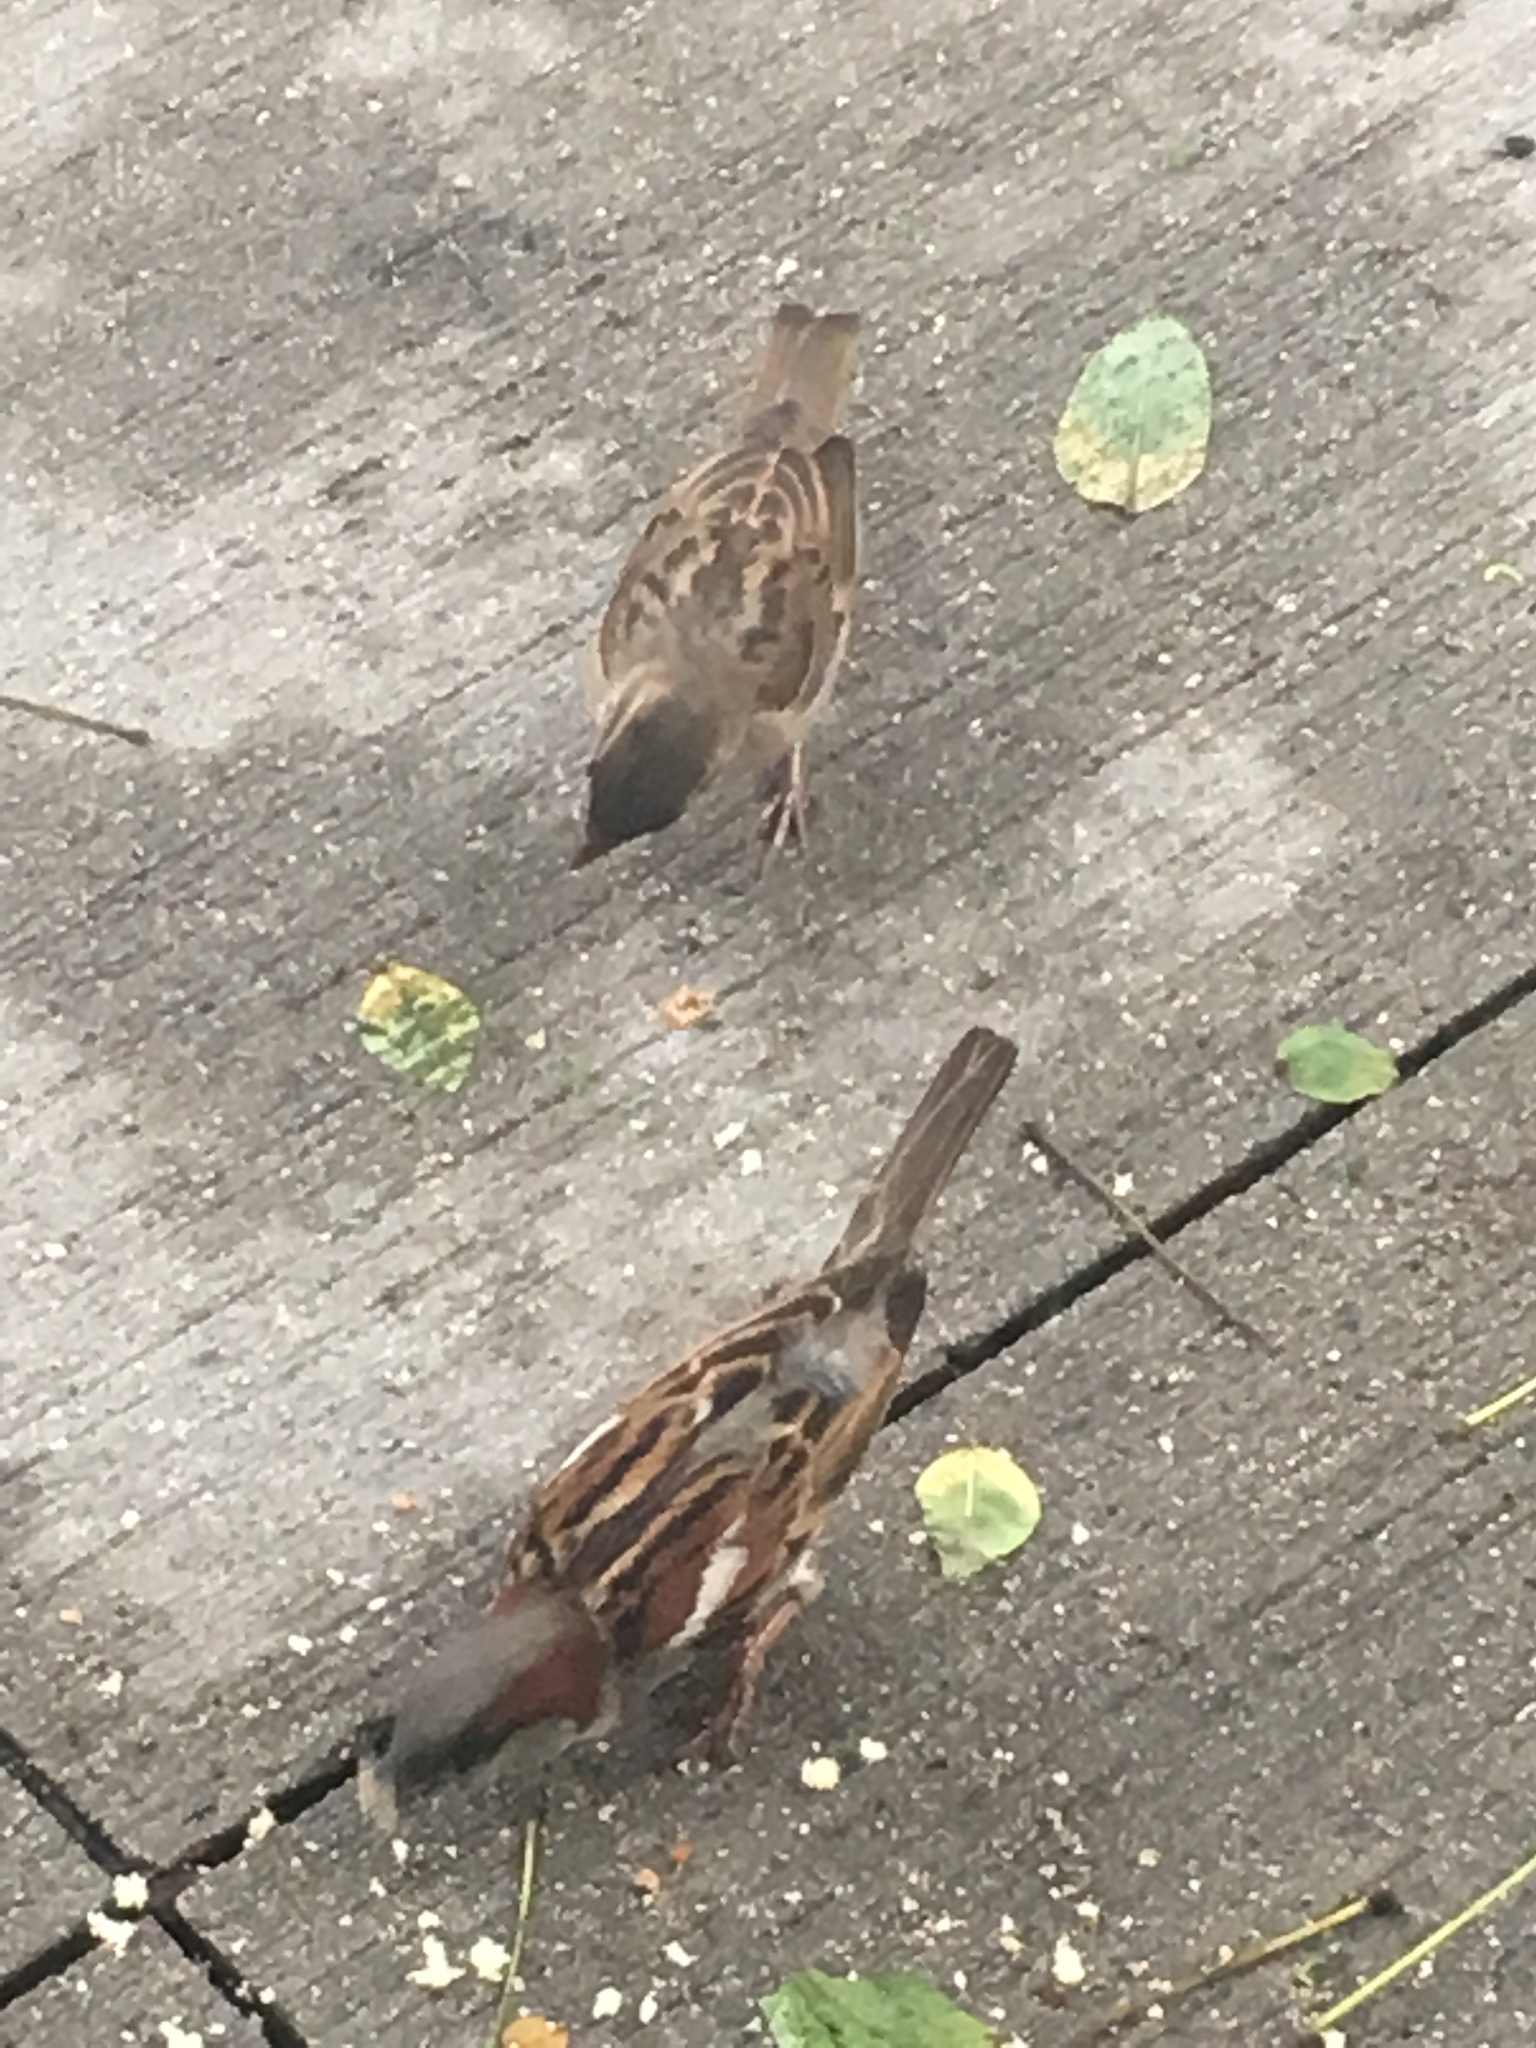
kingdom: Animalia
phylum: Chordata
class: Aves
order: Passeriformes
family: Passeridae
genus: Passer
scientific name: Passer domesticus
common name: House sparrow
